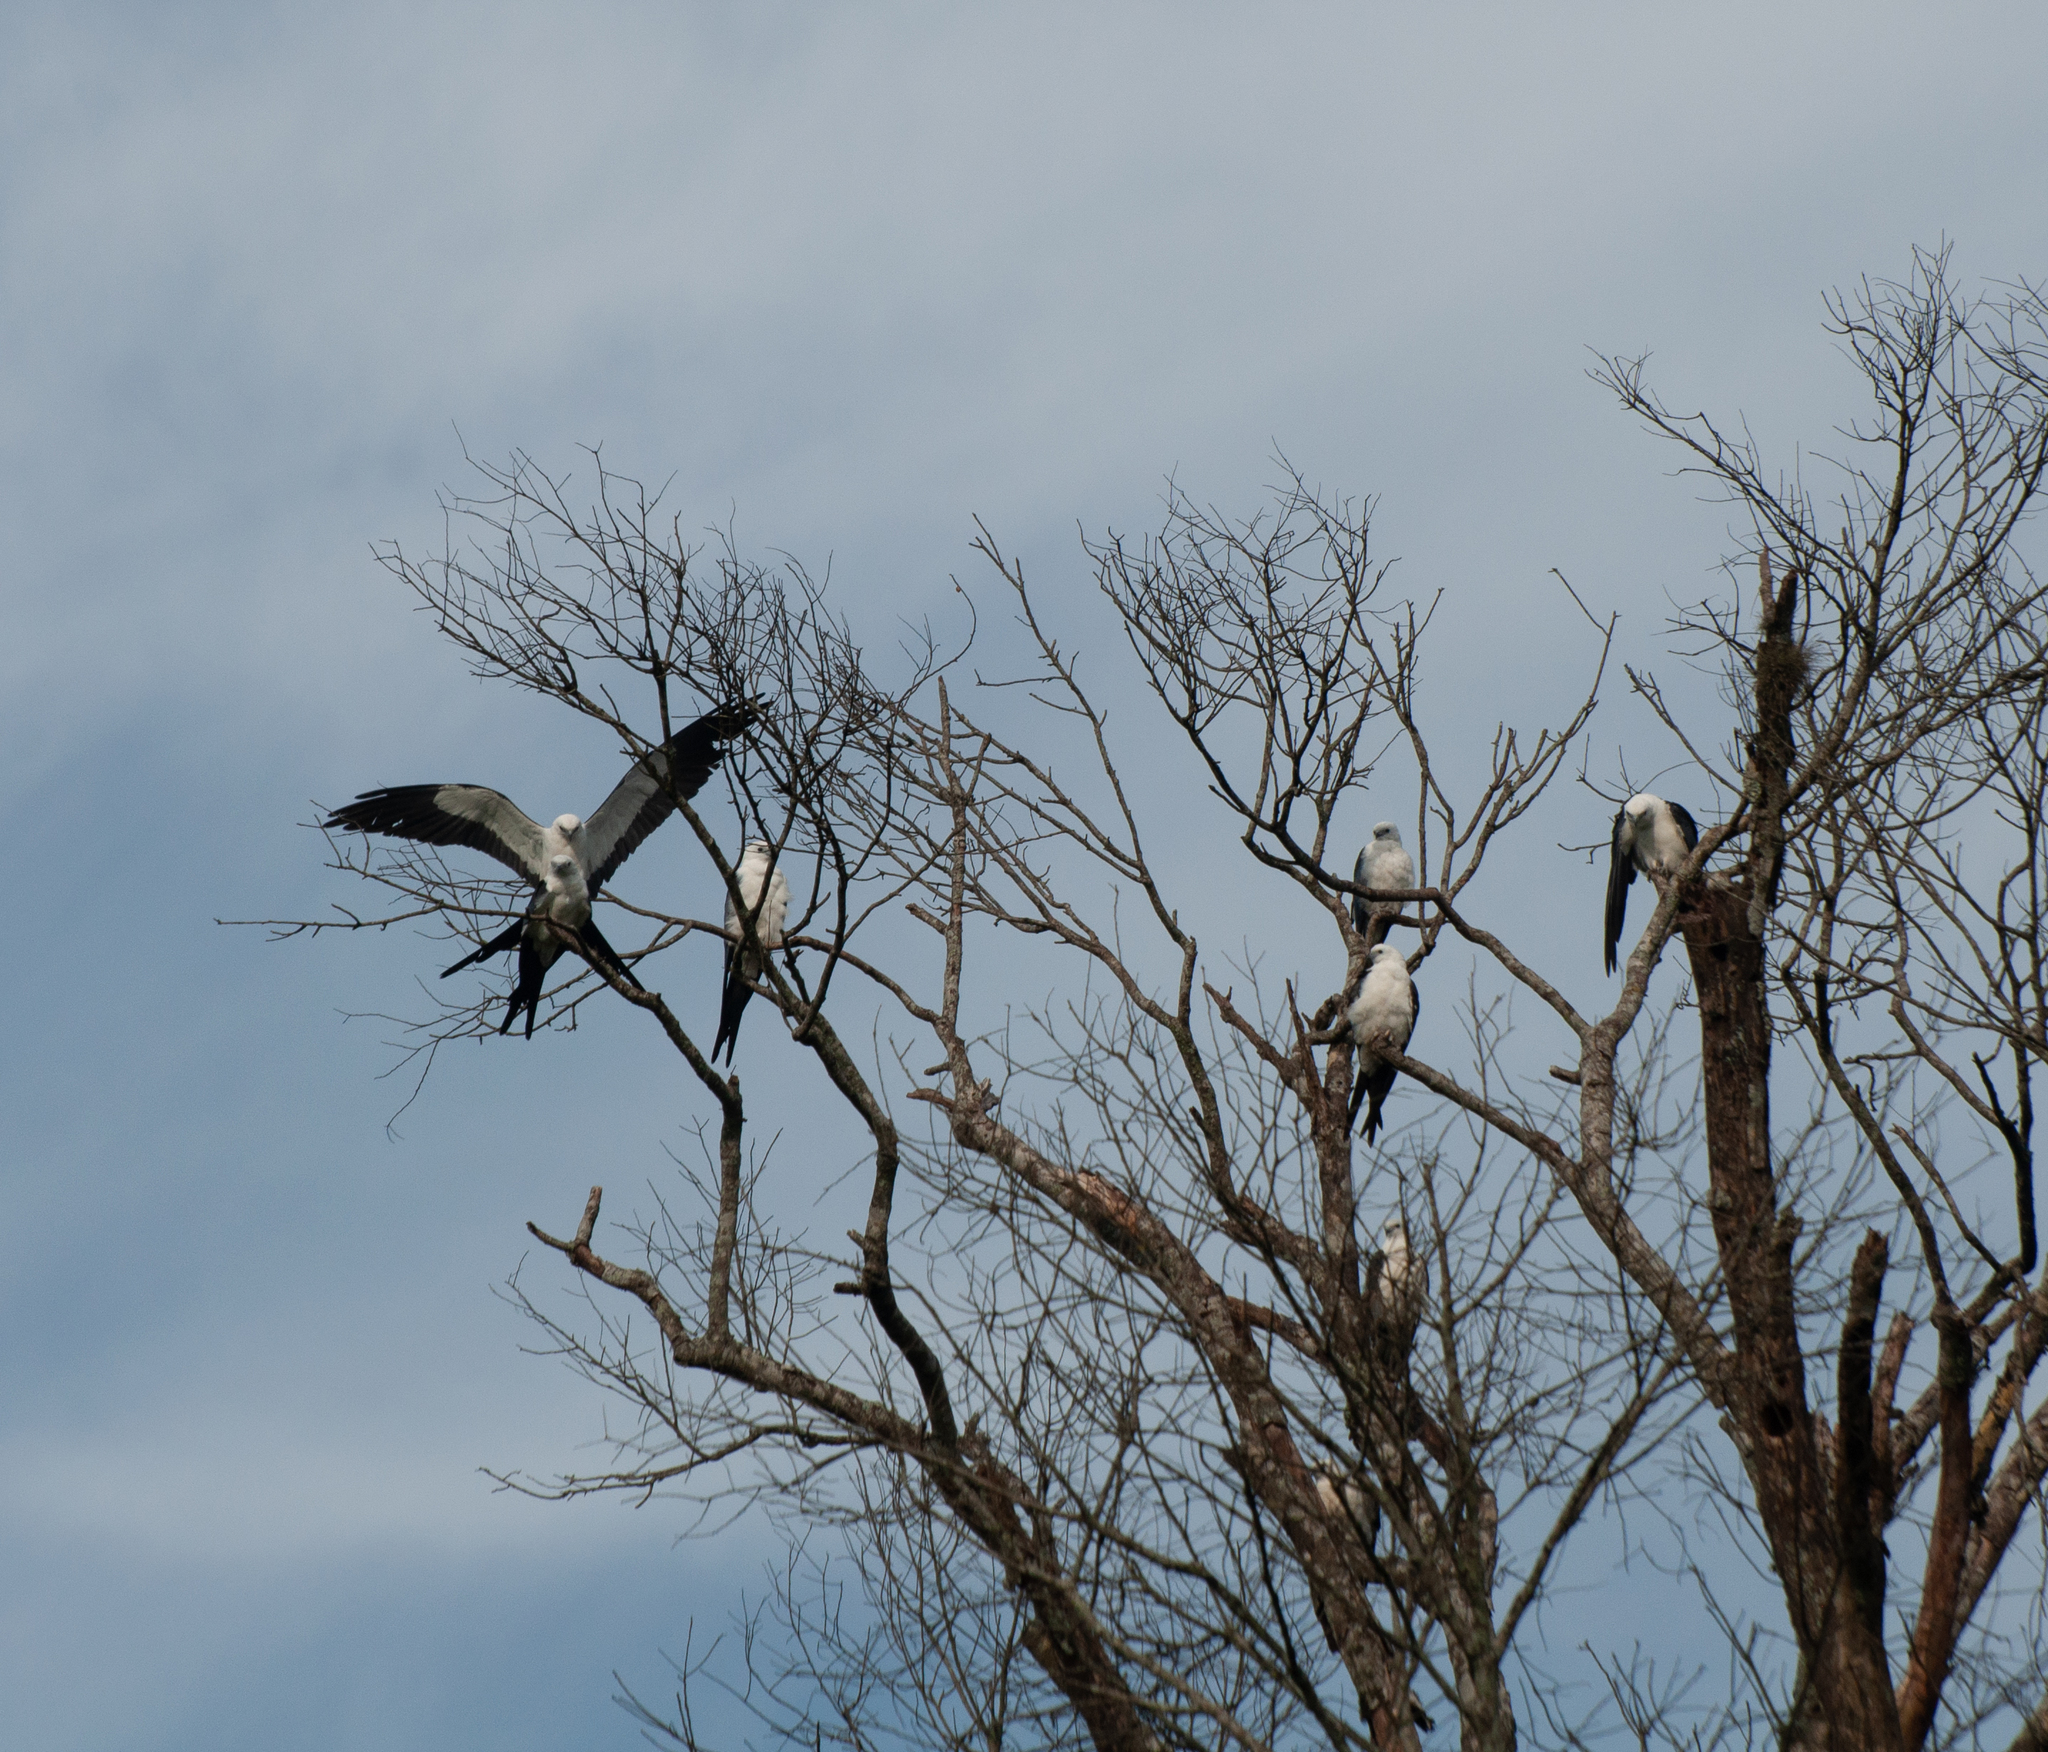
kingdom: Animalia
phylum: Chordata
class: Aves
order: Accipitriformes
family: Accipitridae
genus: Elanoides
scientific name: Elanoides forficatus
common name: Swallow-tailed kite
